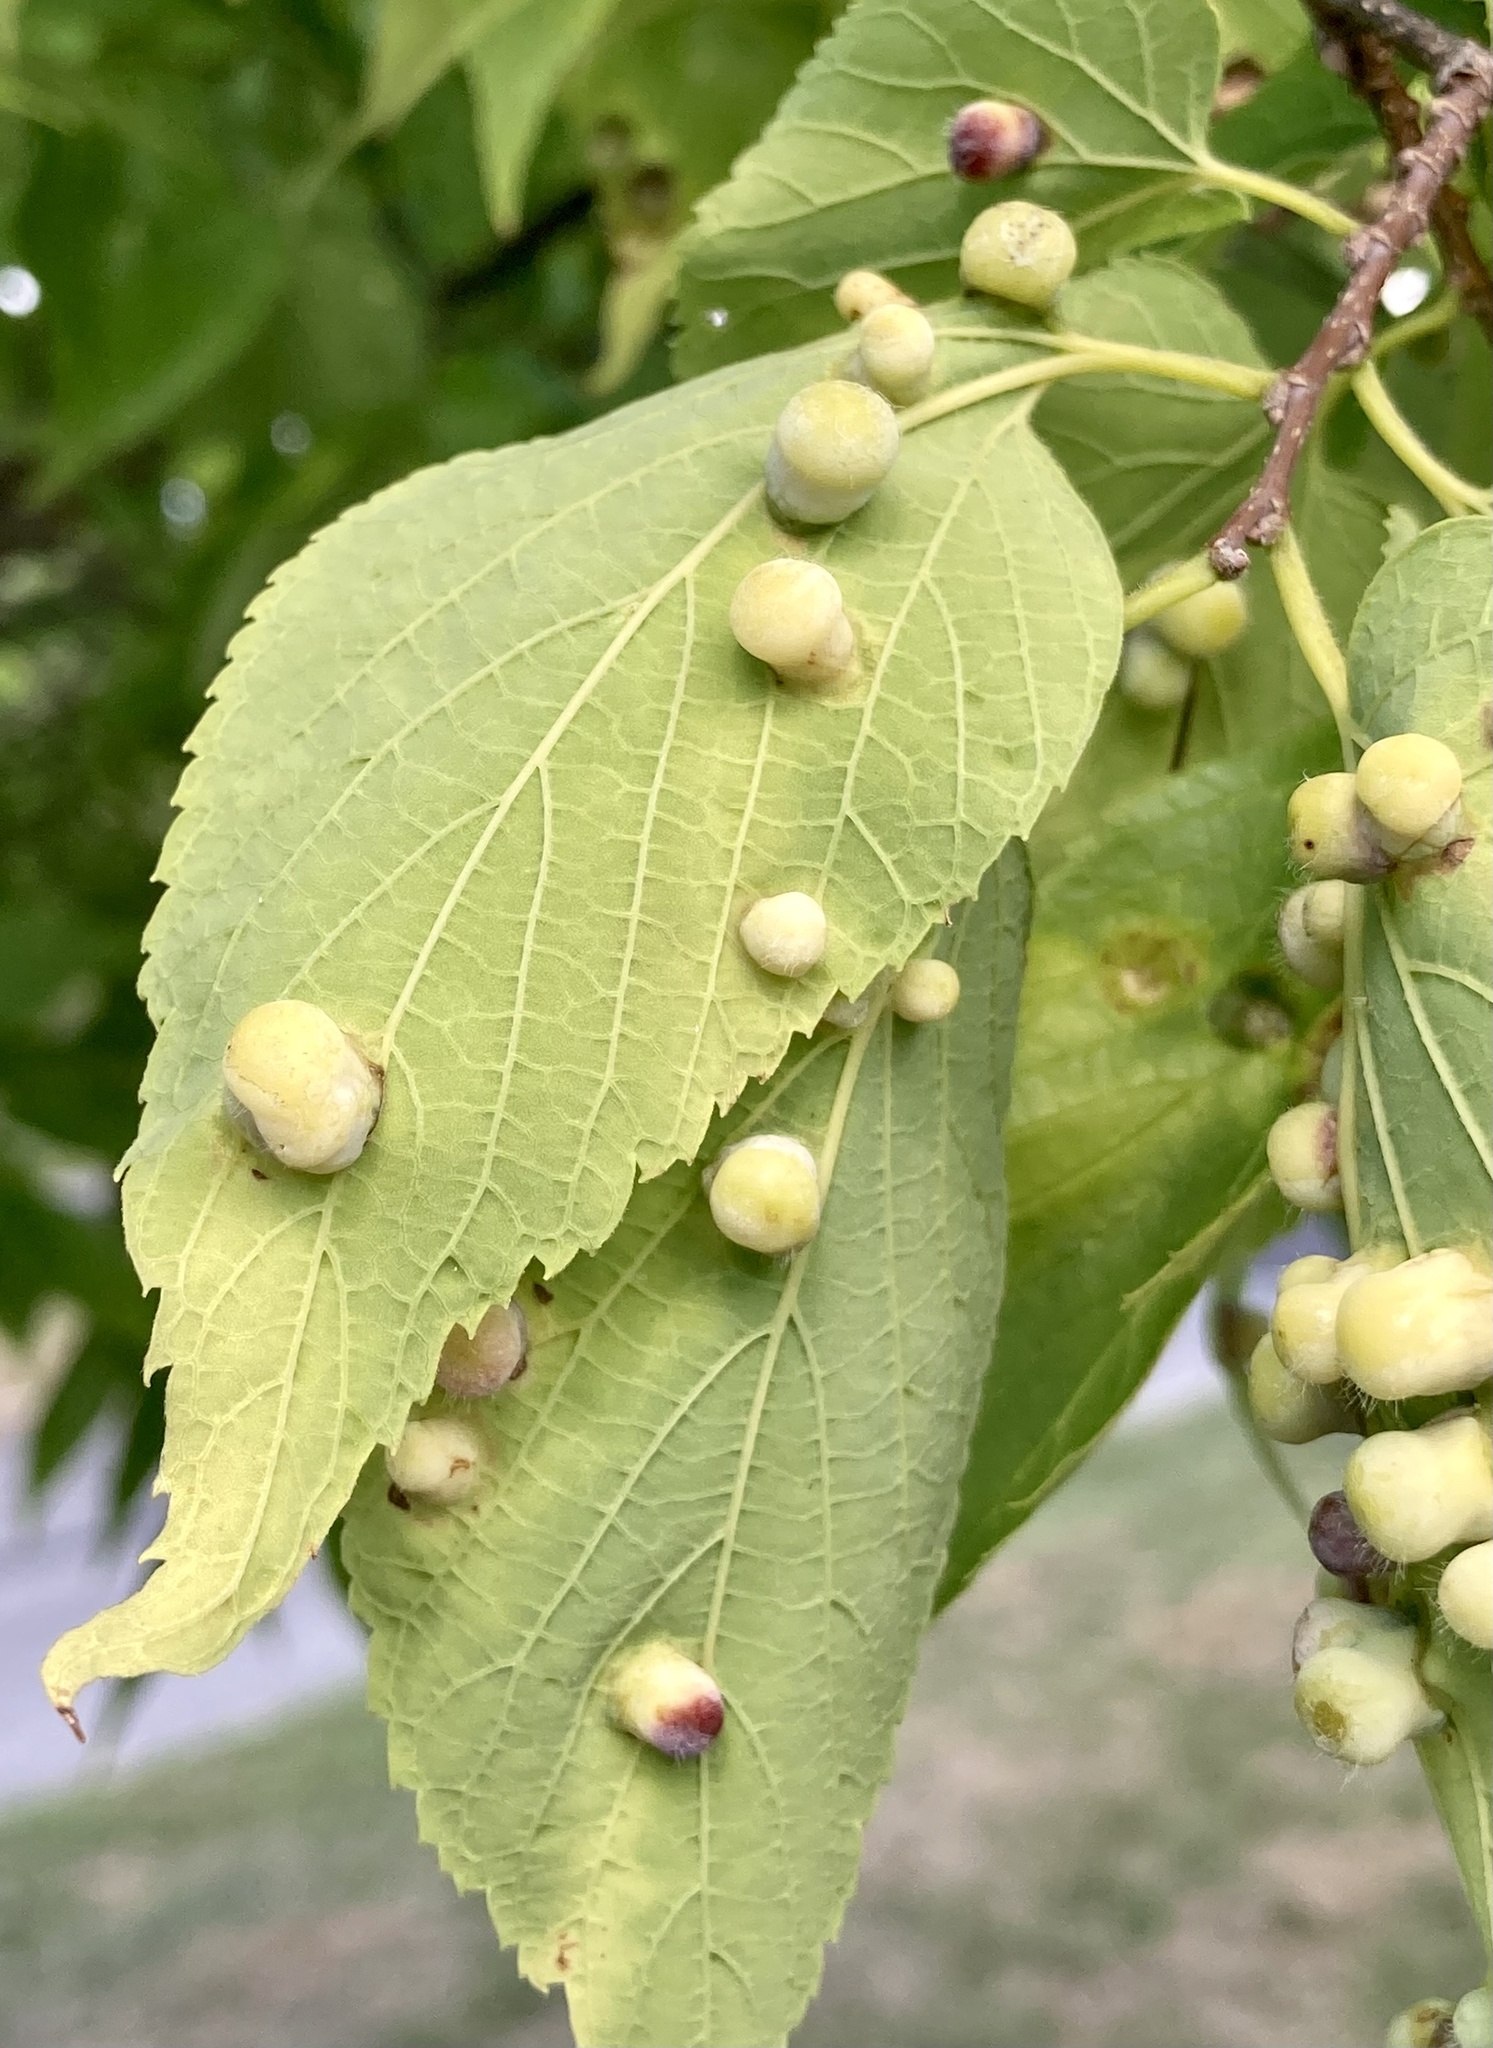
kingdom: Animalia
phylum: Arthropoda
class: Insecta
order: Hemiptera
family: Aphalaridae
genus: Pachypsylla
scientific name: Pachypsylla celtidismamma
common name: Hackberry nipplegall psyllid
